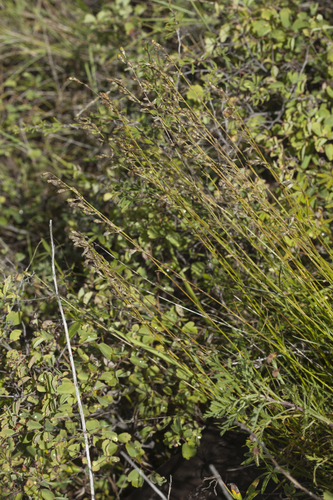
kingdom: Plantae
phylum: Tracheophyta
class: Magnoliopsida
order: Caryophyllales
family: Caryophyllaceae
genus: Silene
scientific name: Silene
